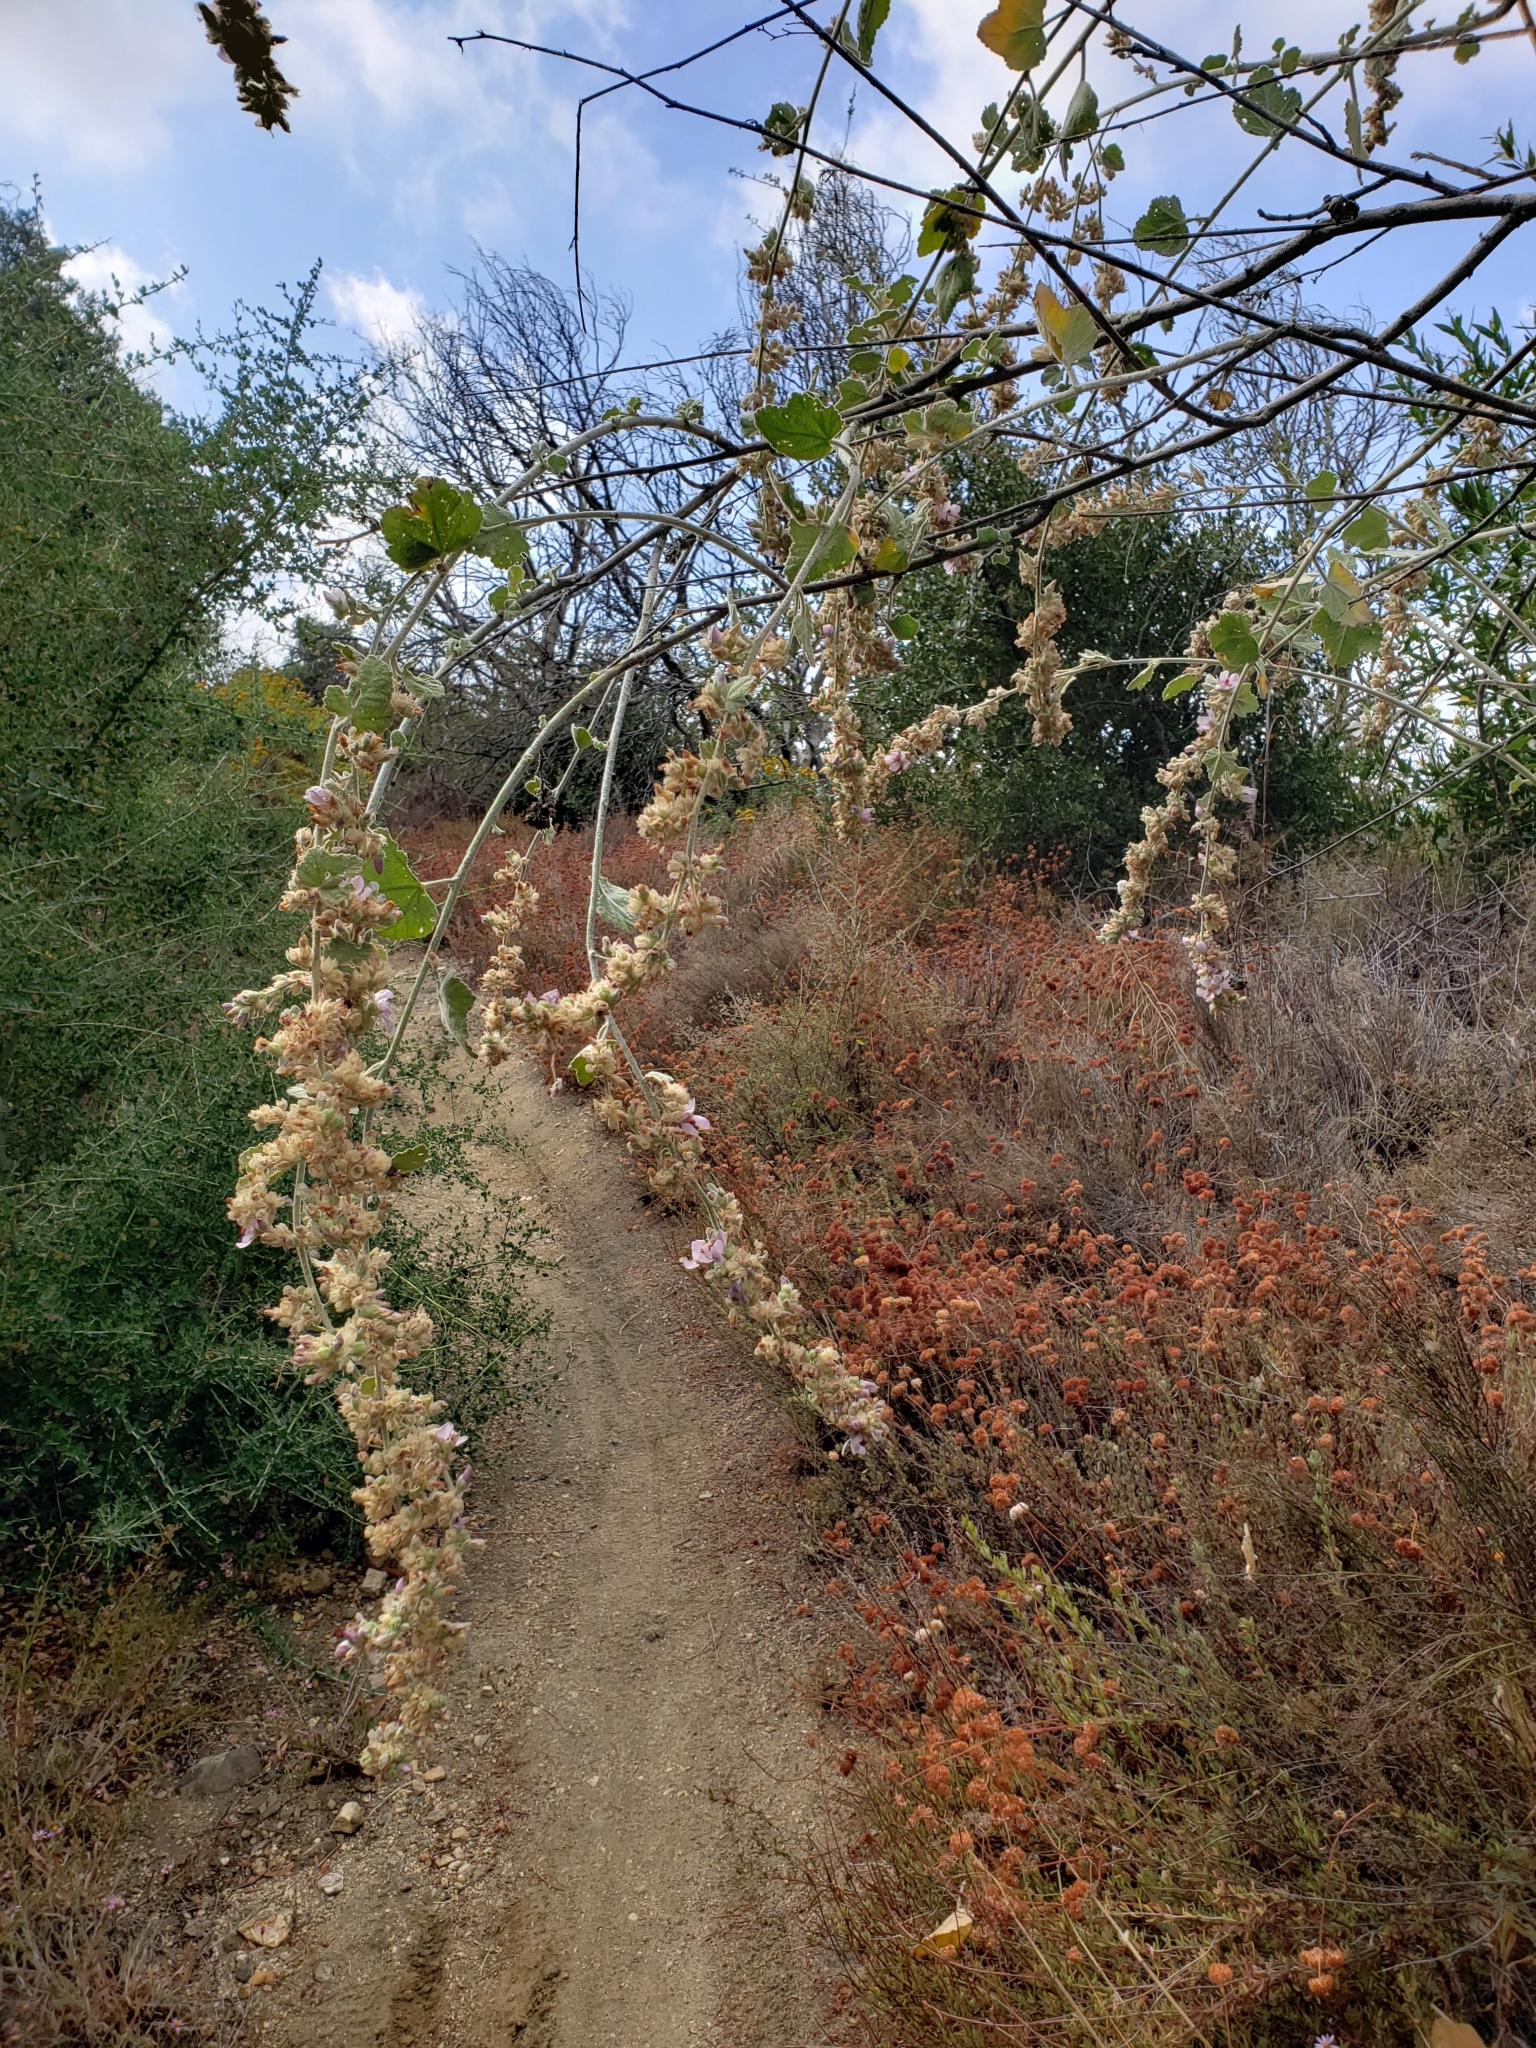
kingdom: Plantae
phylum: Tracheophyta
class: Magnoliopsida
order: Malvales
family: Malvaceae
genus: Malacothamnus
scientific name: Malacothamnus davidsonii
